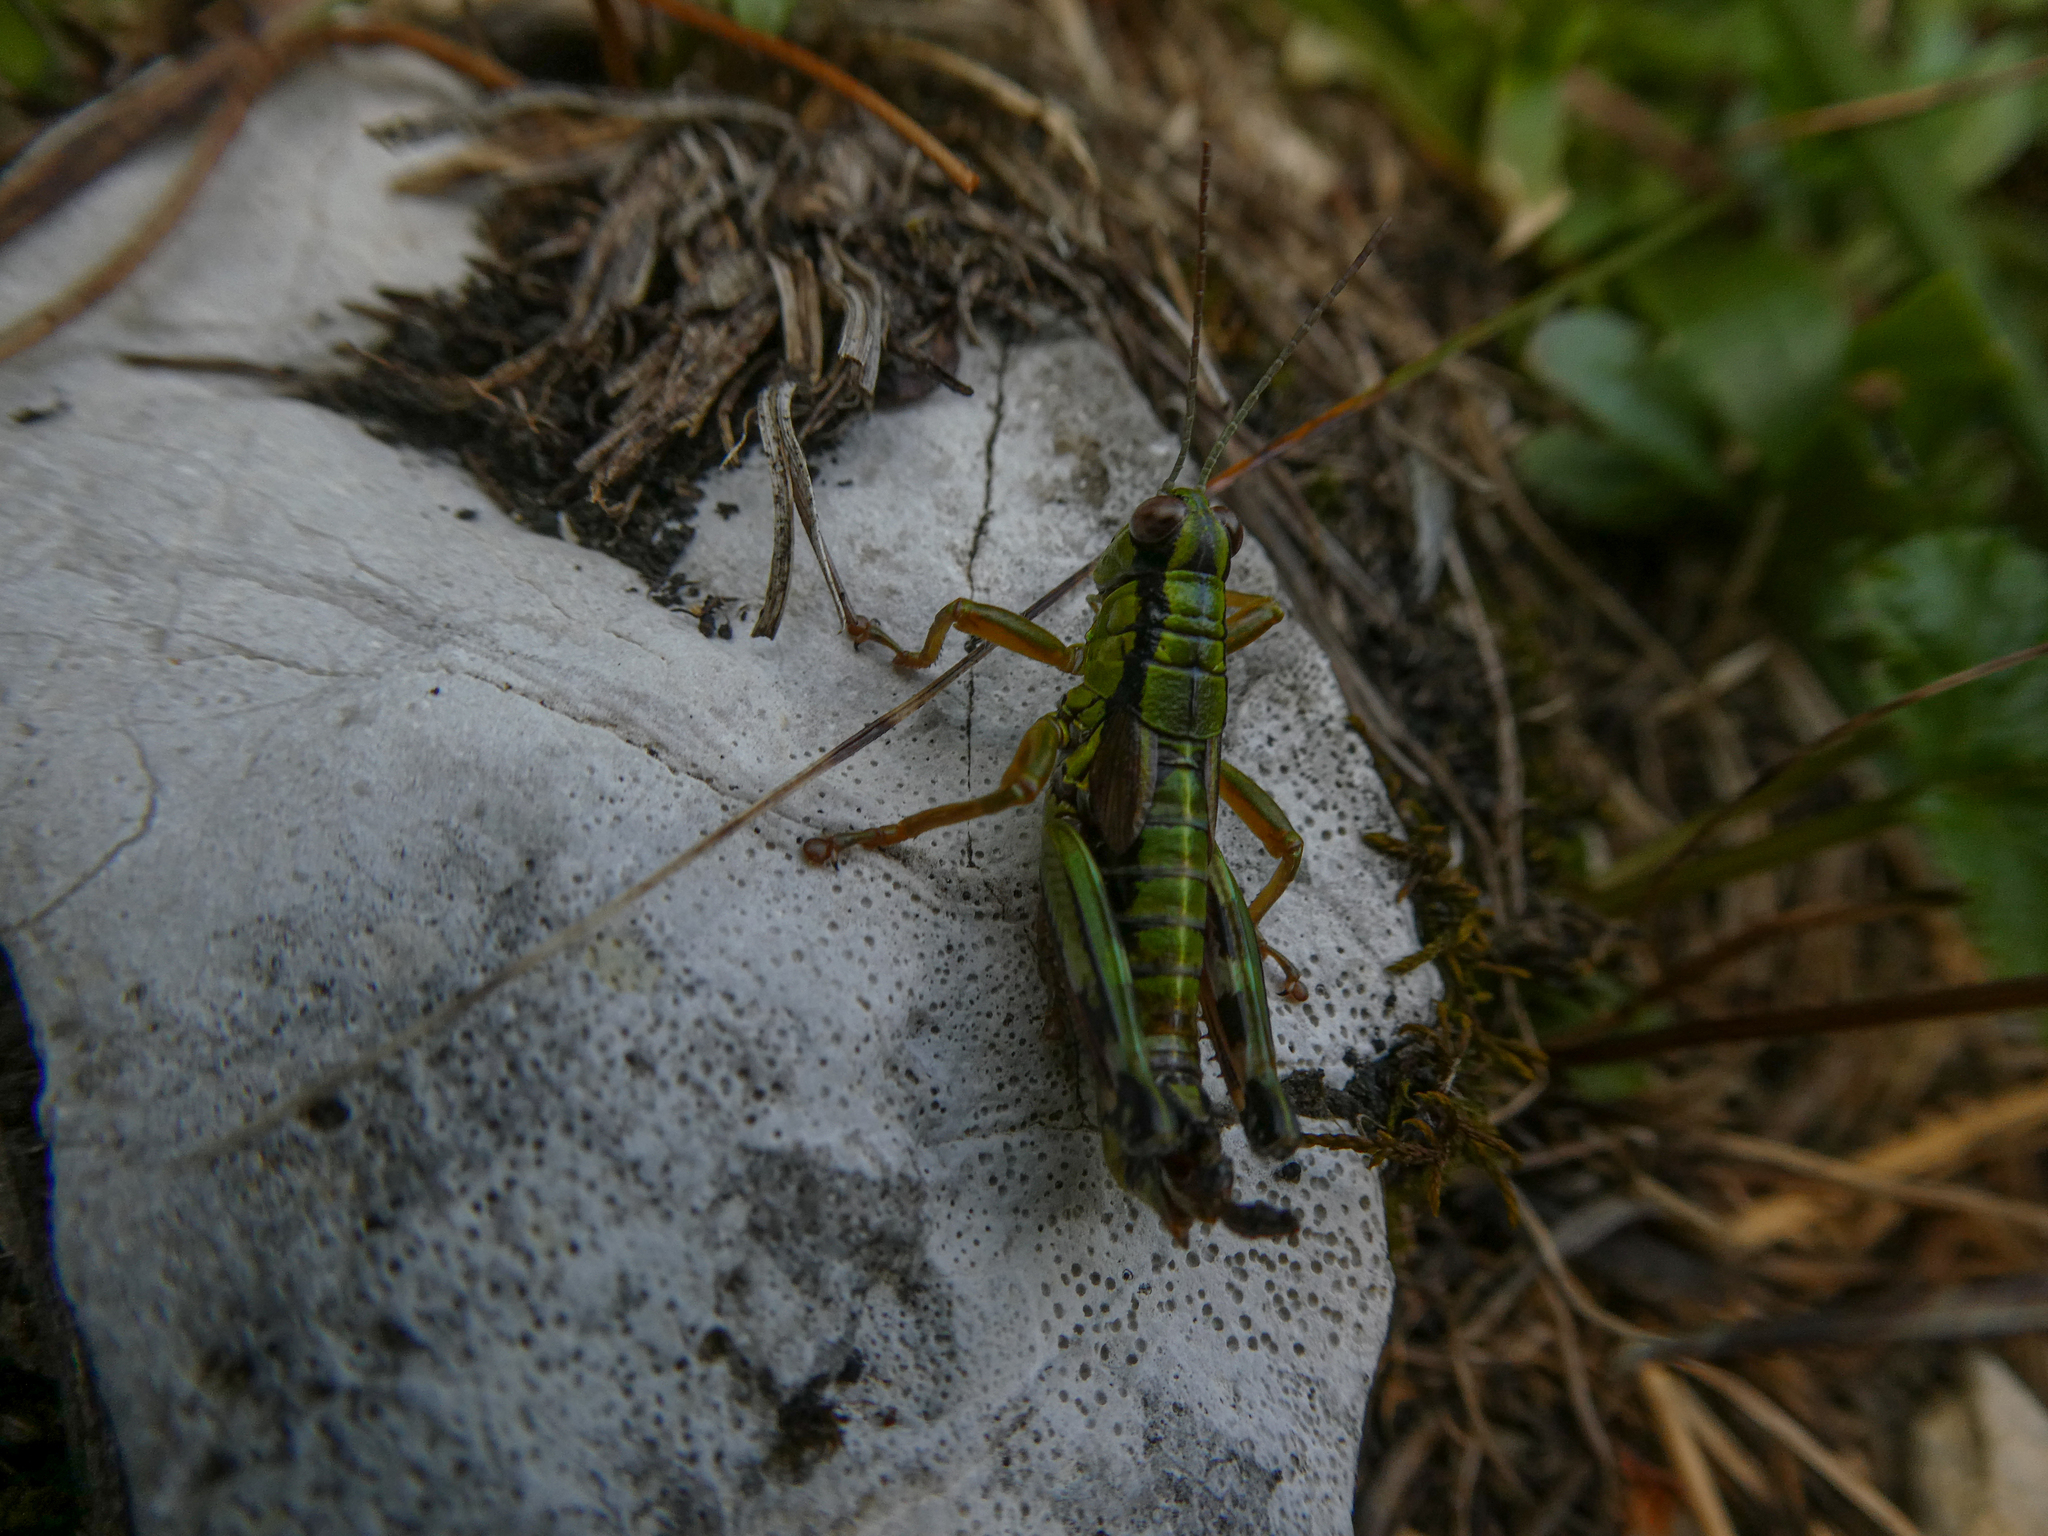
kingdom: Animalia
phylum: Arthropoda
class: Insecta
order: Orthoptera
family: Acrididae
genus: Miramella
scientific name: Miramella alpina
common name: Green mountain grasshopper
